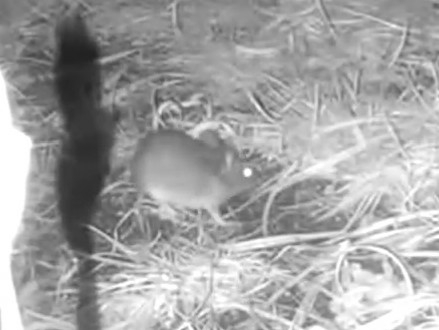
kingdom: Animalia
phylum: Chordata
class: Mammalia
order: Rodentia
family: Muridae
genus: Apodemus
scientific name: Apodemus sylvaticus
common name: Wood mouse
